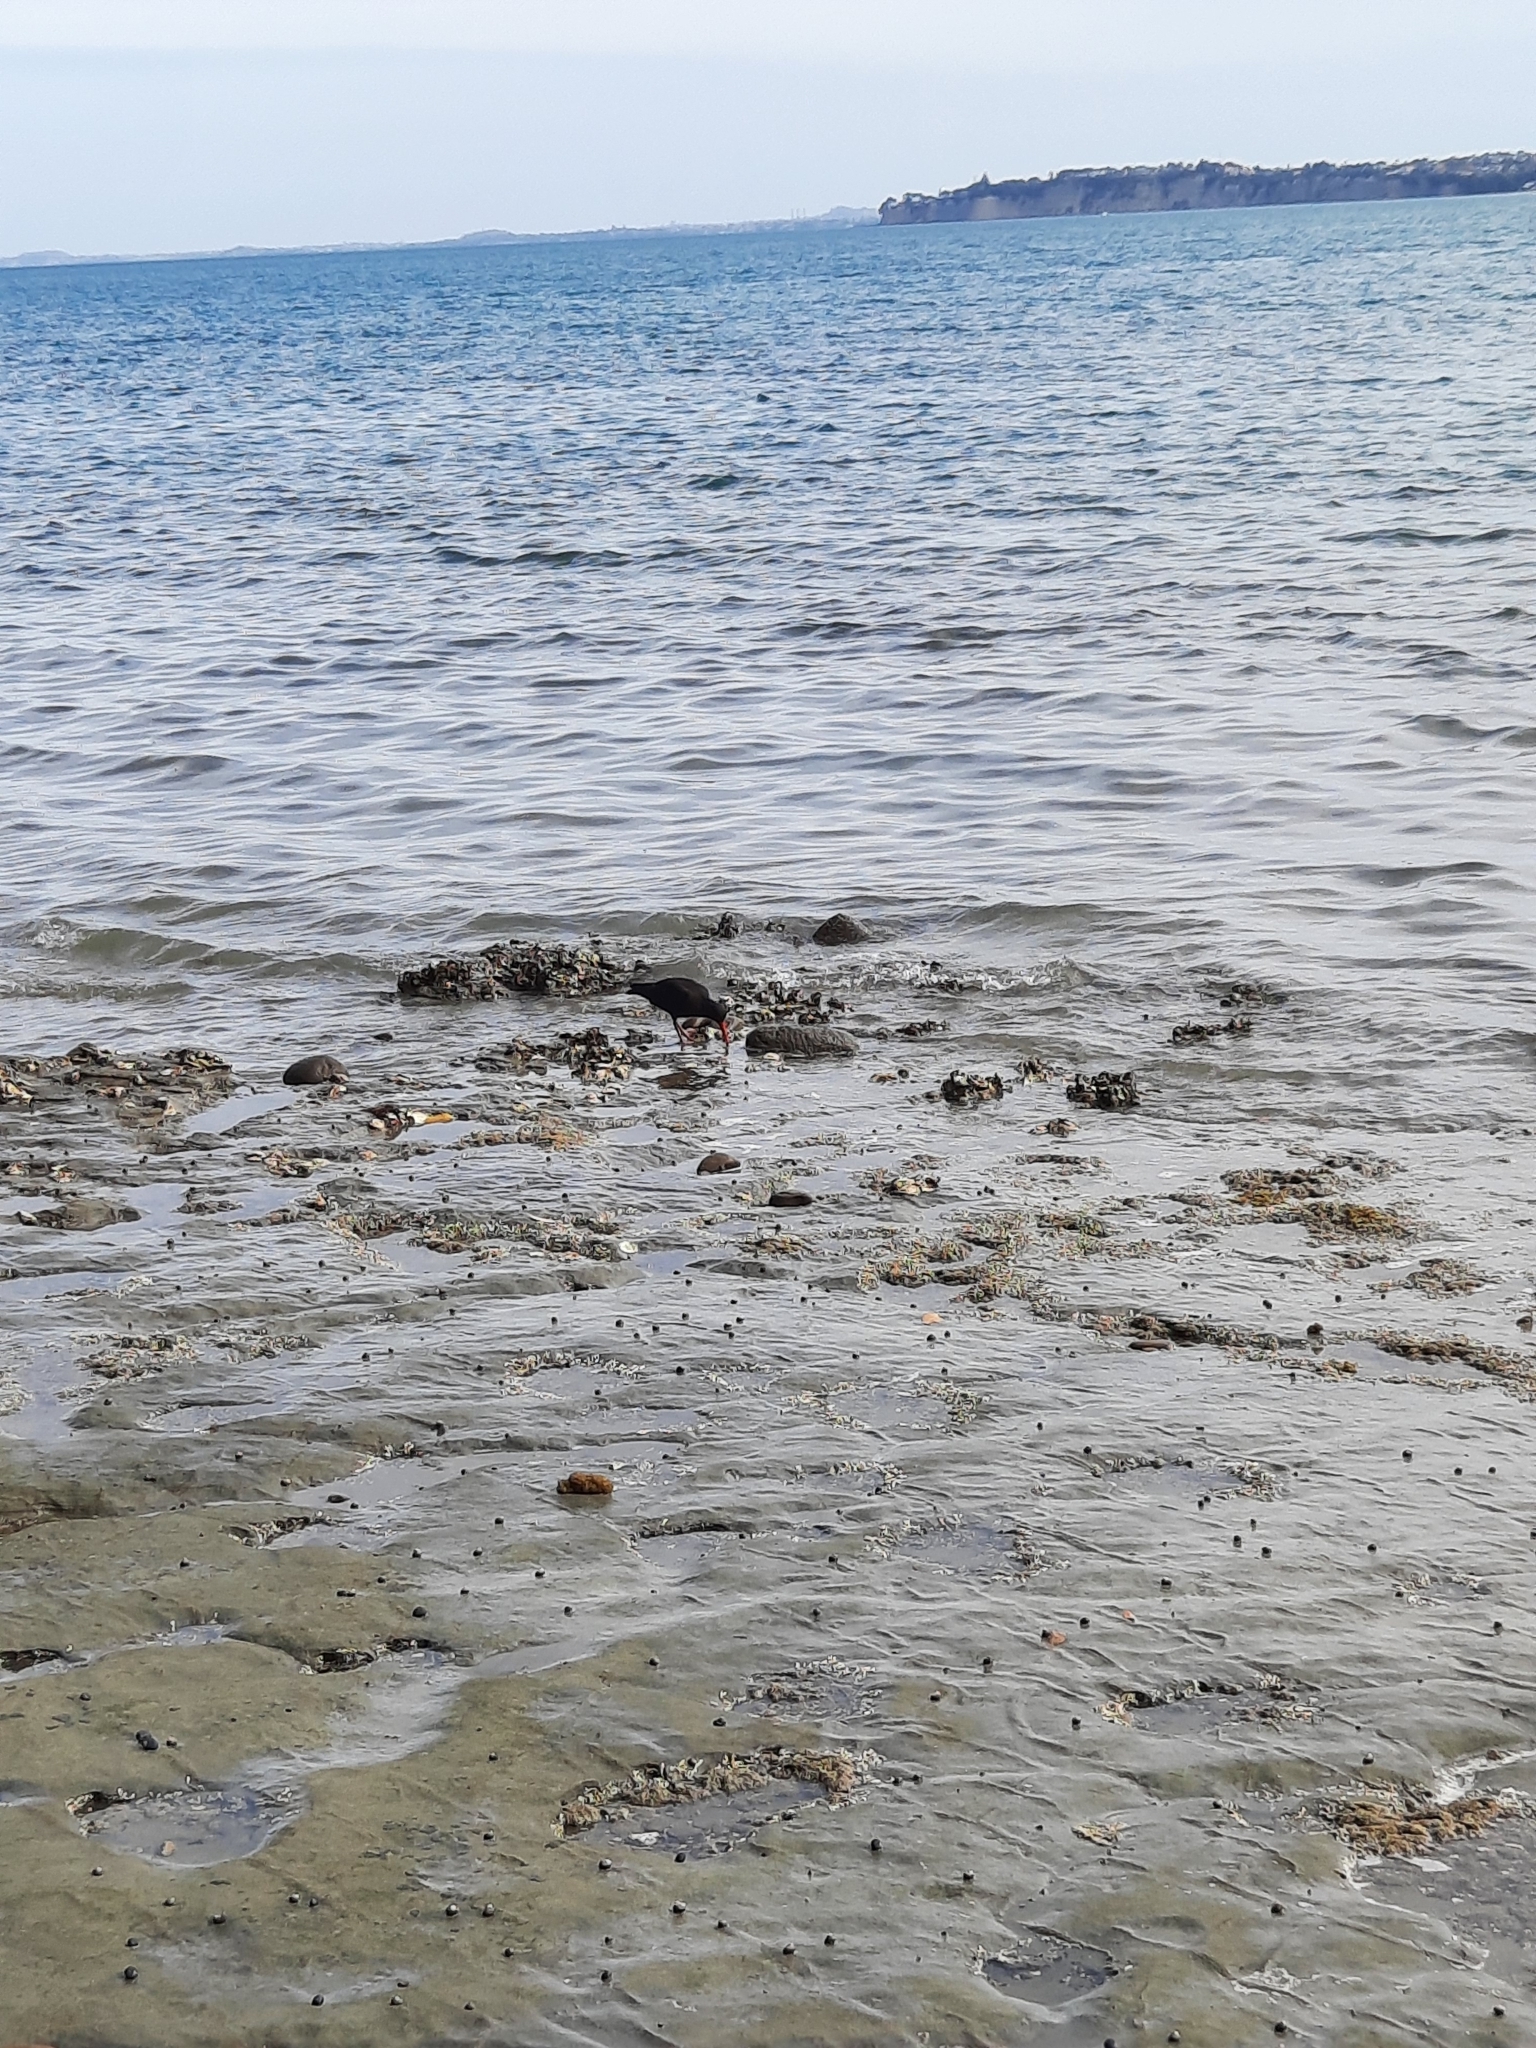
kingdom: Animalia
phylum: Chordata
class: Aves
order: Charadriiformes
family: Haematopodidae
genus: Haematopus
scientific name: Haematopus unicolor
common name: Variable oystercatcher
